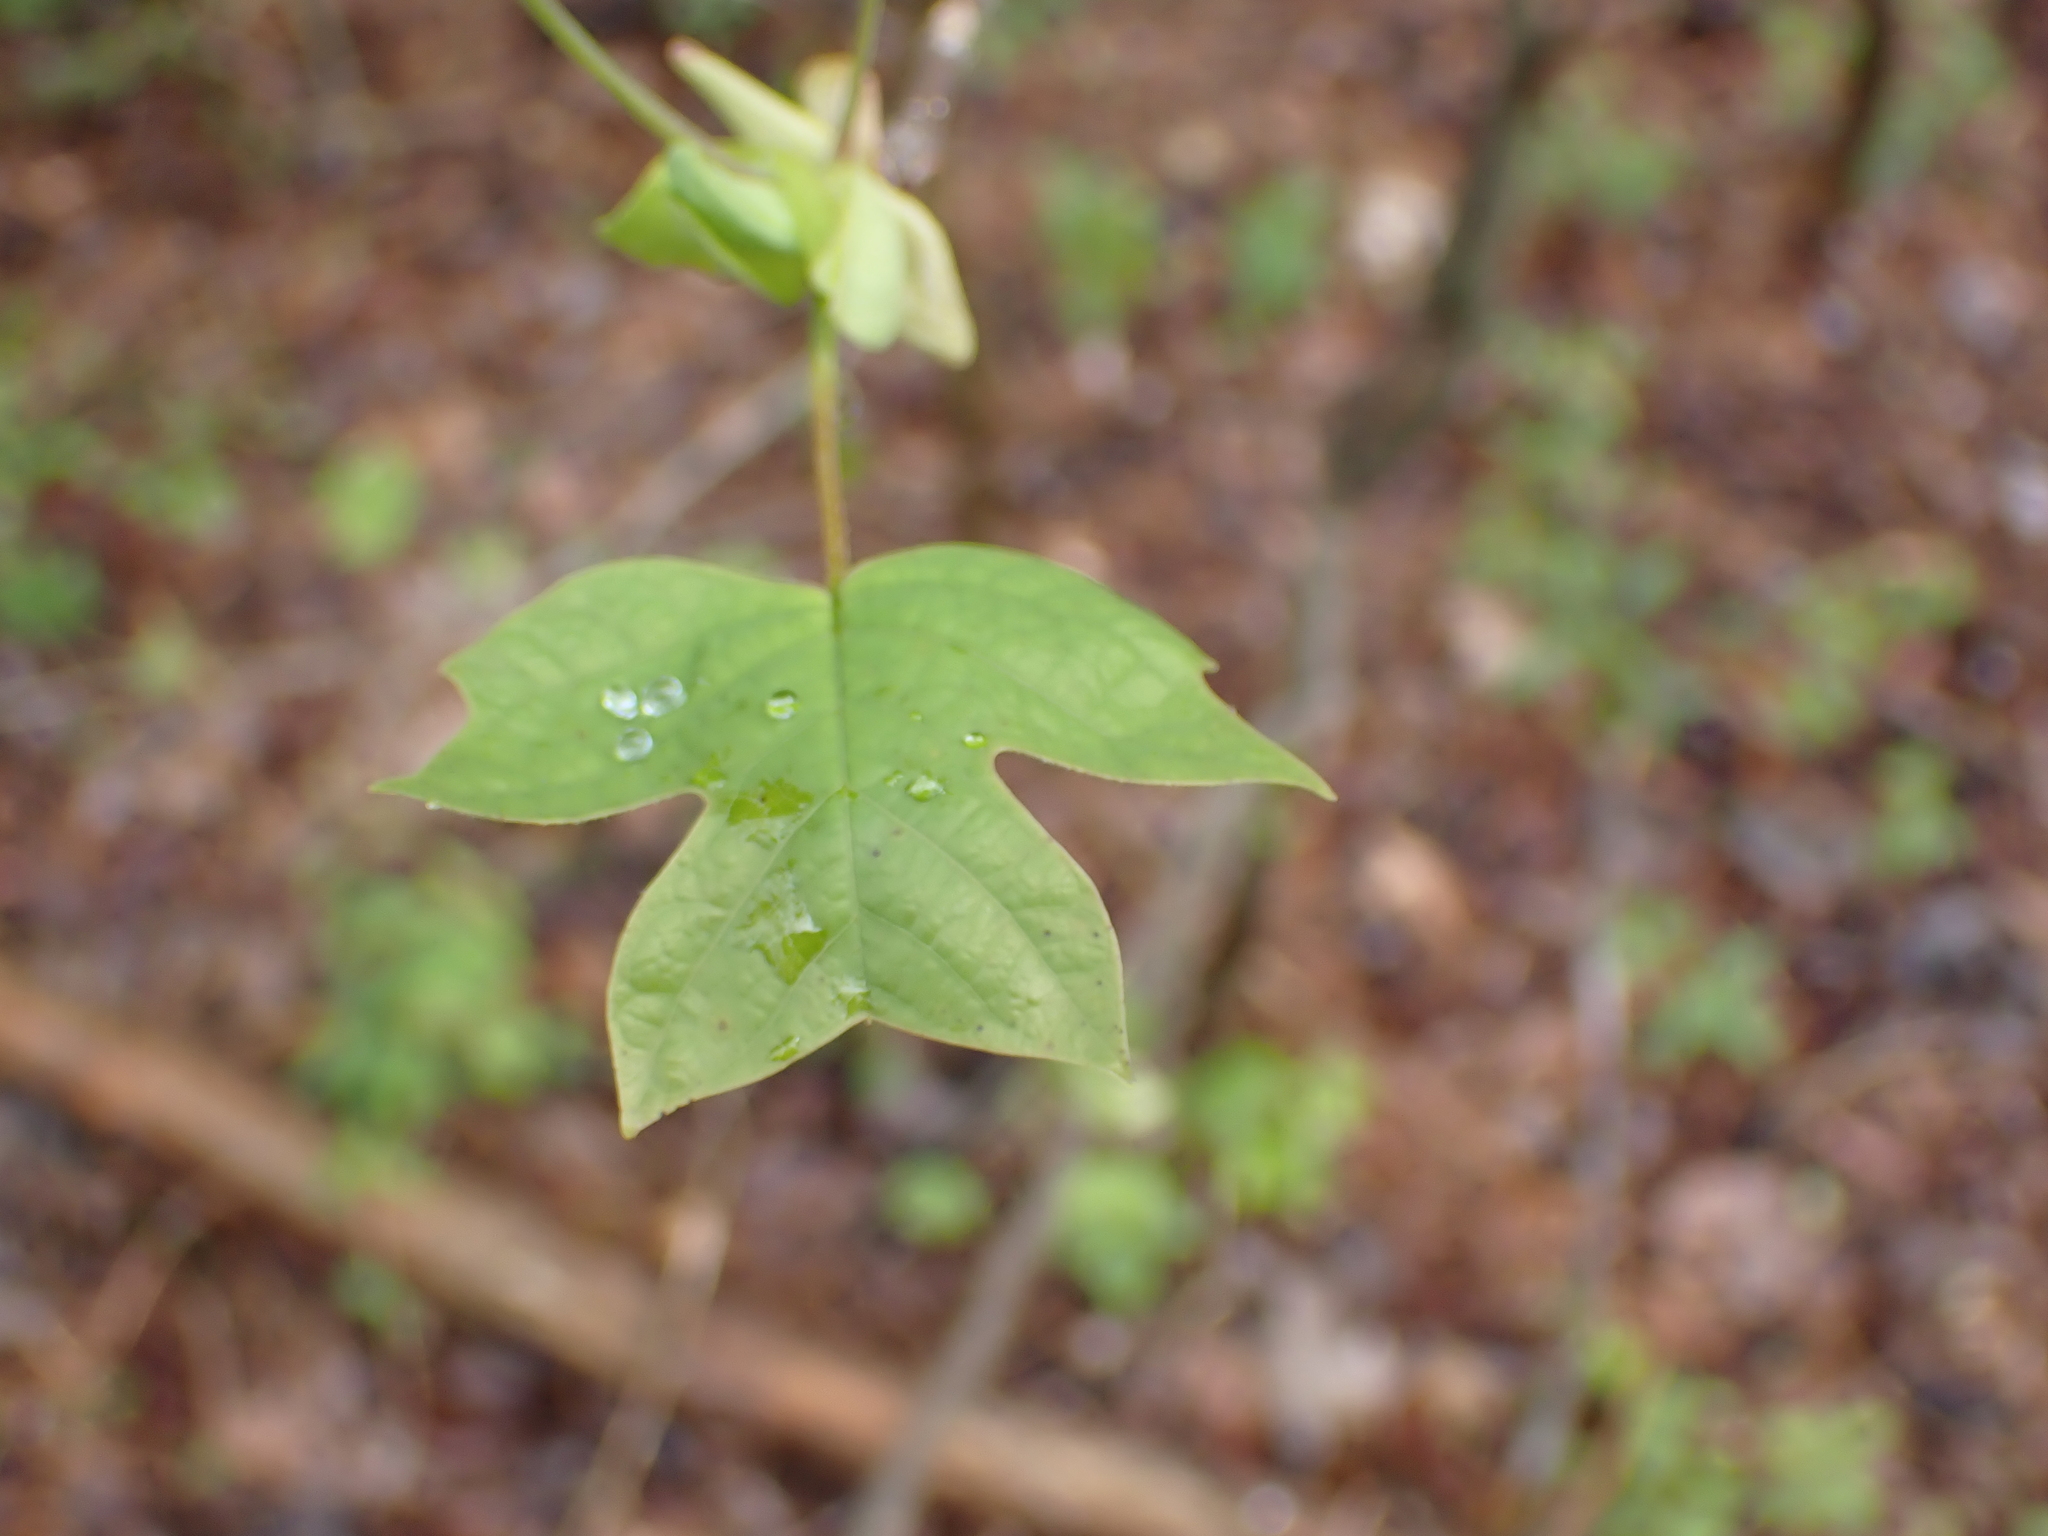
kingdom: Plantae
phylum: Tracheophyta
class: Magnoliopsida
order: Magnoliales
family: Magnoliaceae
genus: Liriodendron
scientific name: Liriodendron tulipifera
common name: Tulip tree
